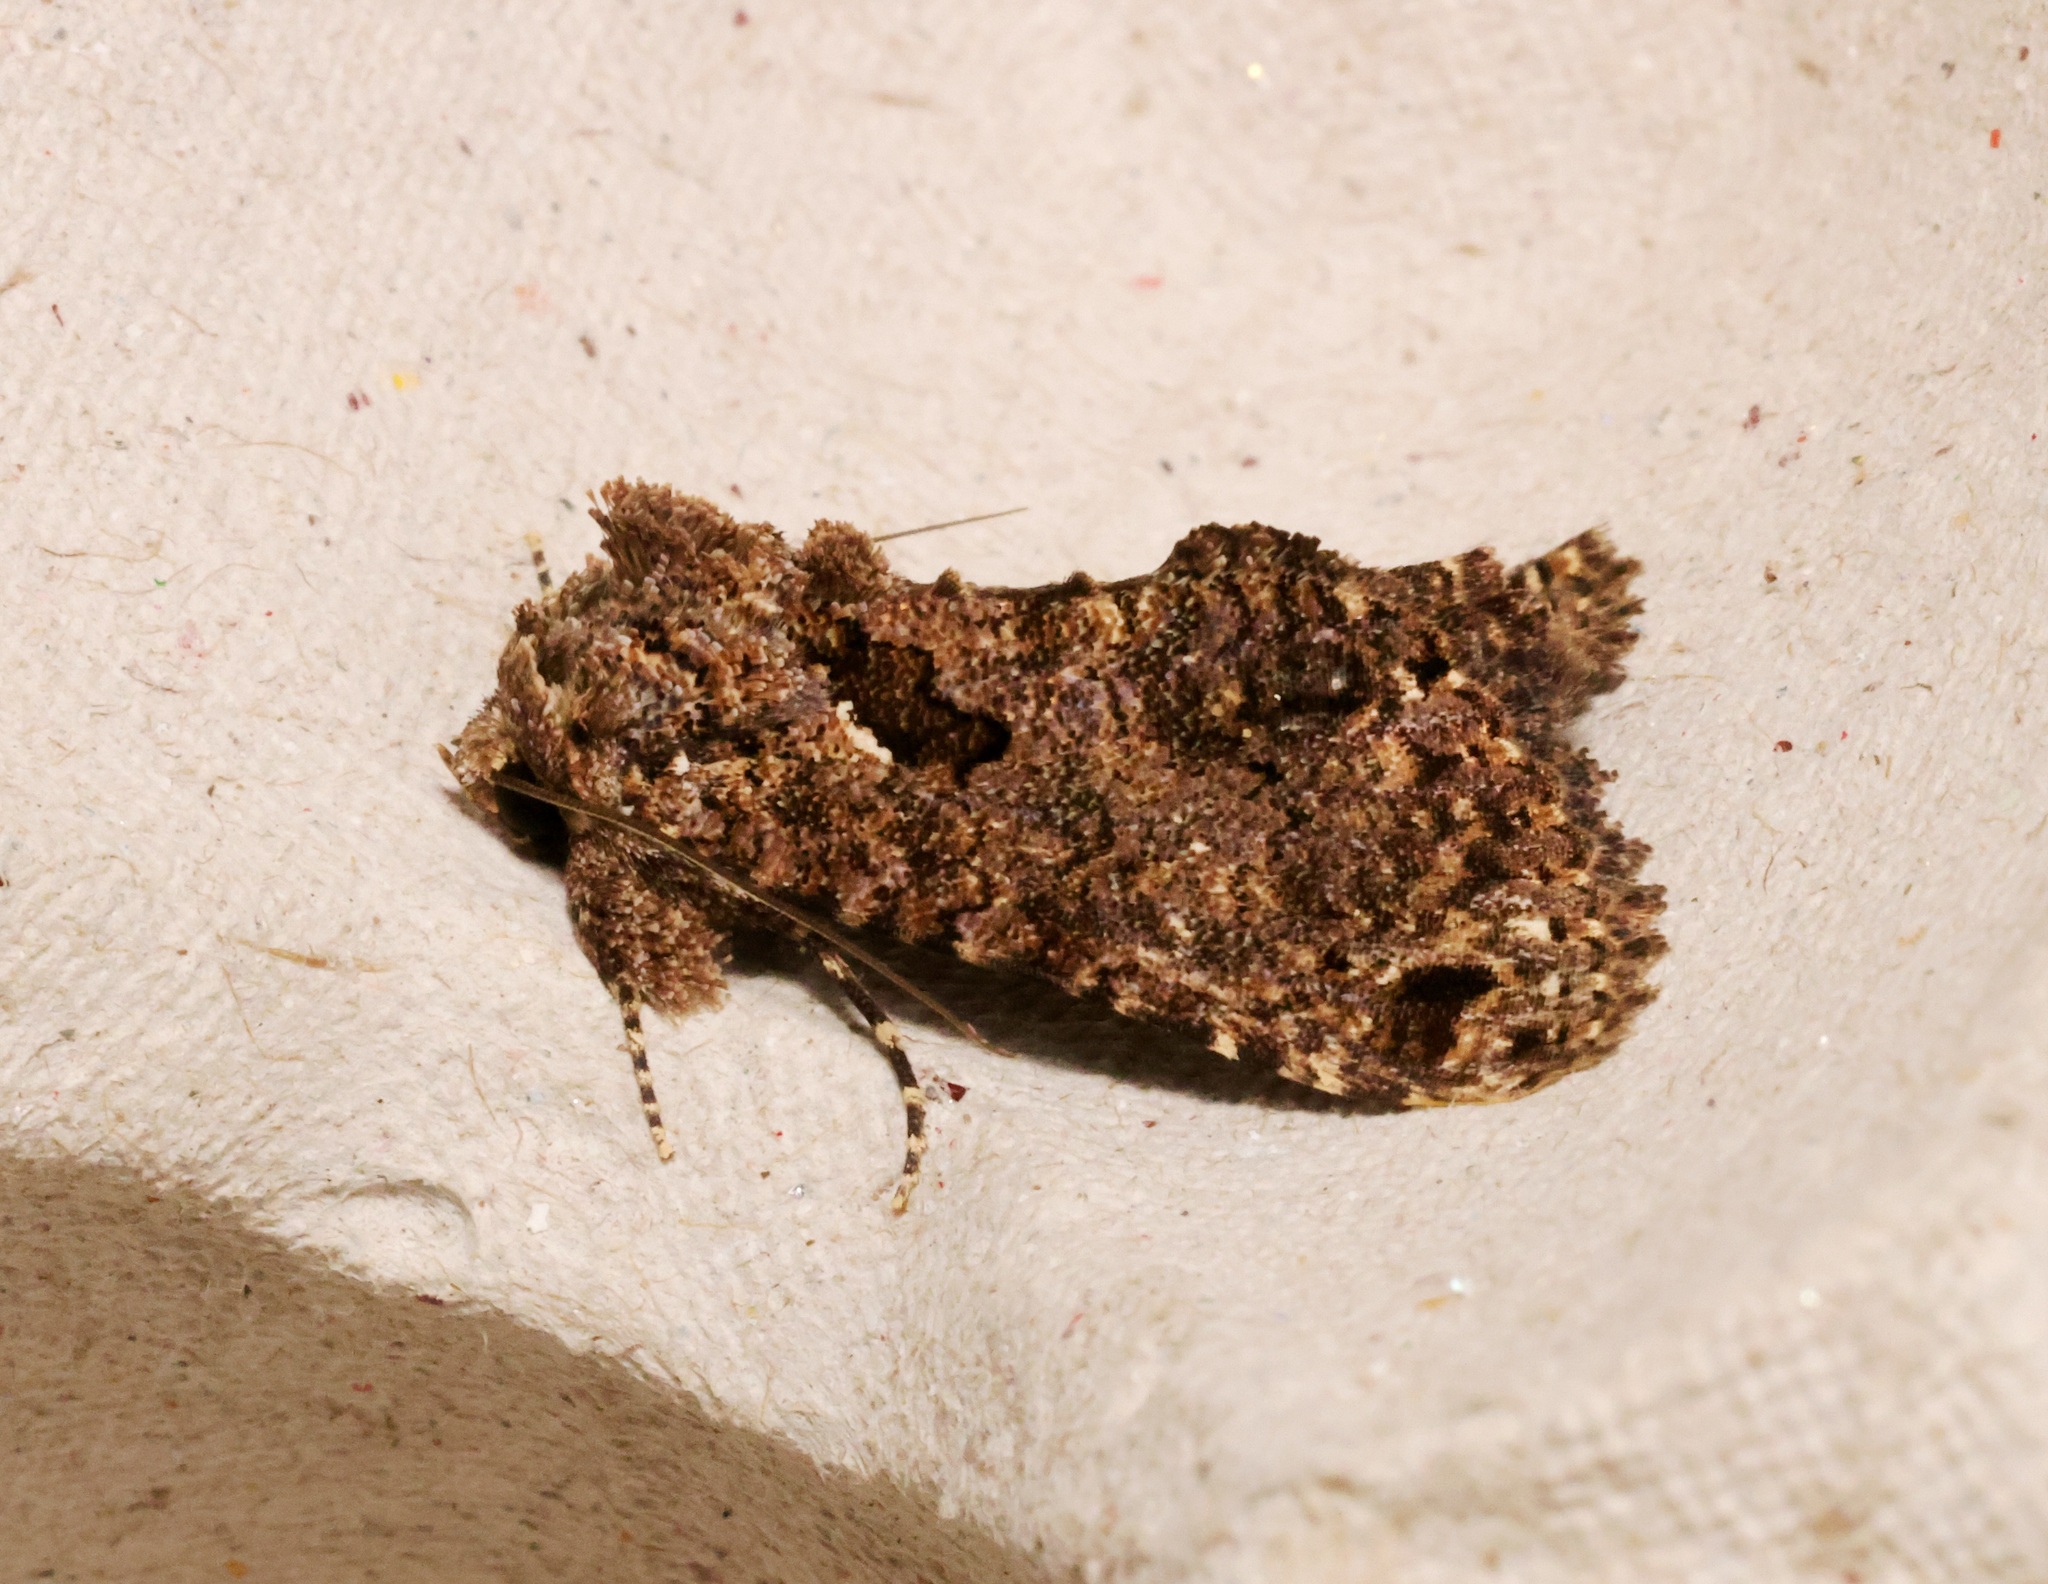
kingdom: Animalia
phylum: Arthropoda
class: Insecta
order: Lepidoptera
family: Erebidae
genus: Erygia
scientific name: Erygia apicalis
